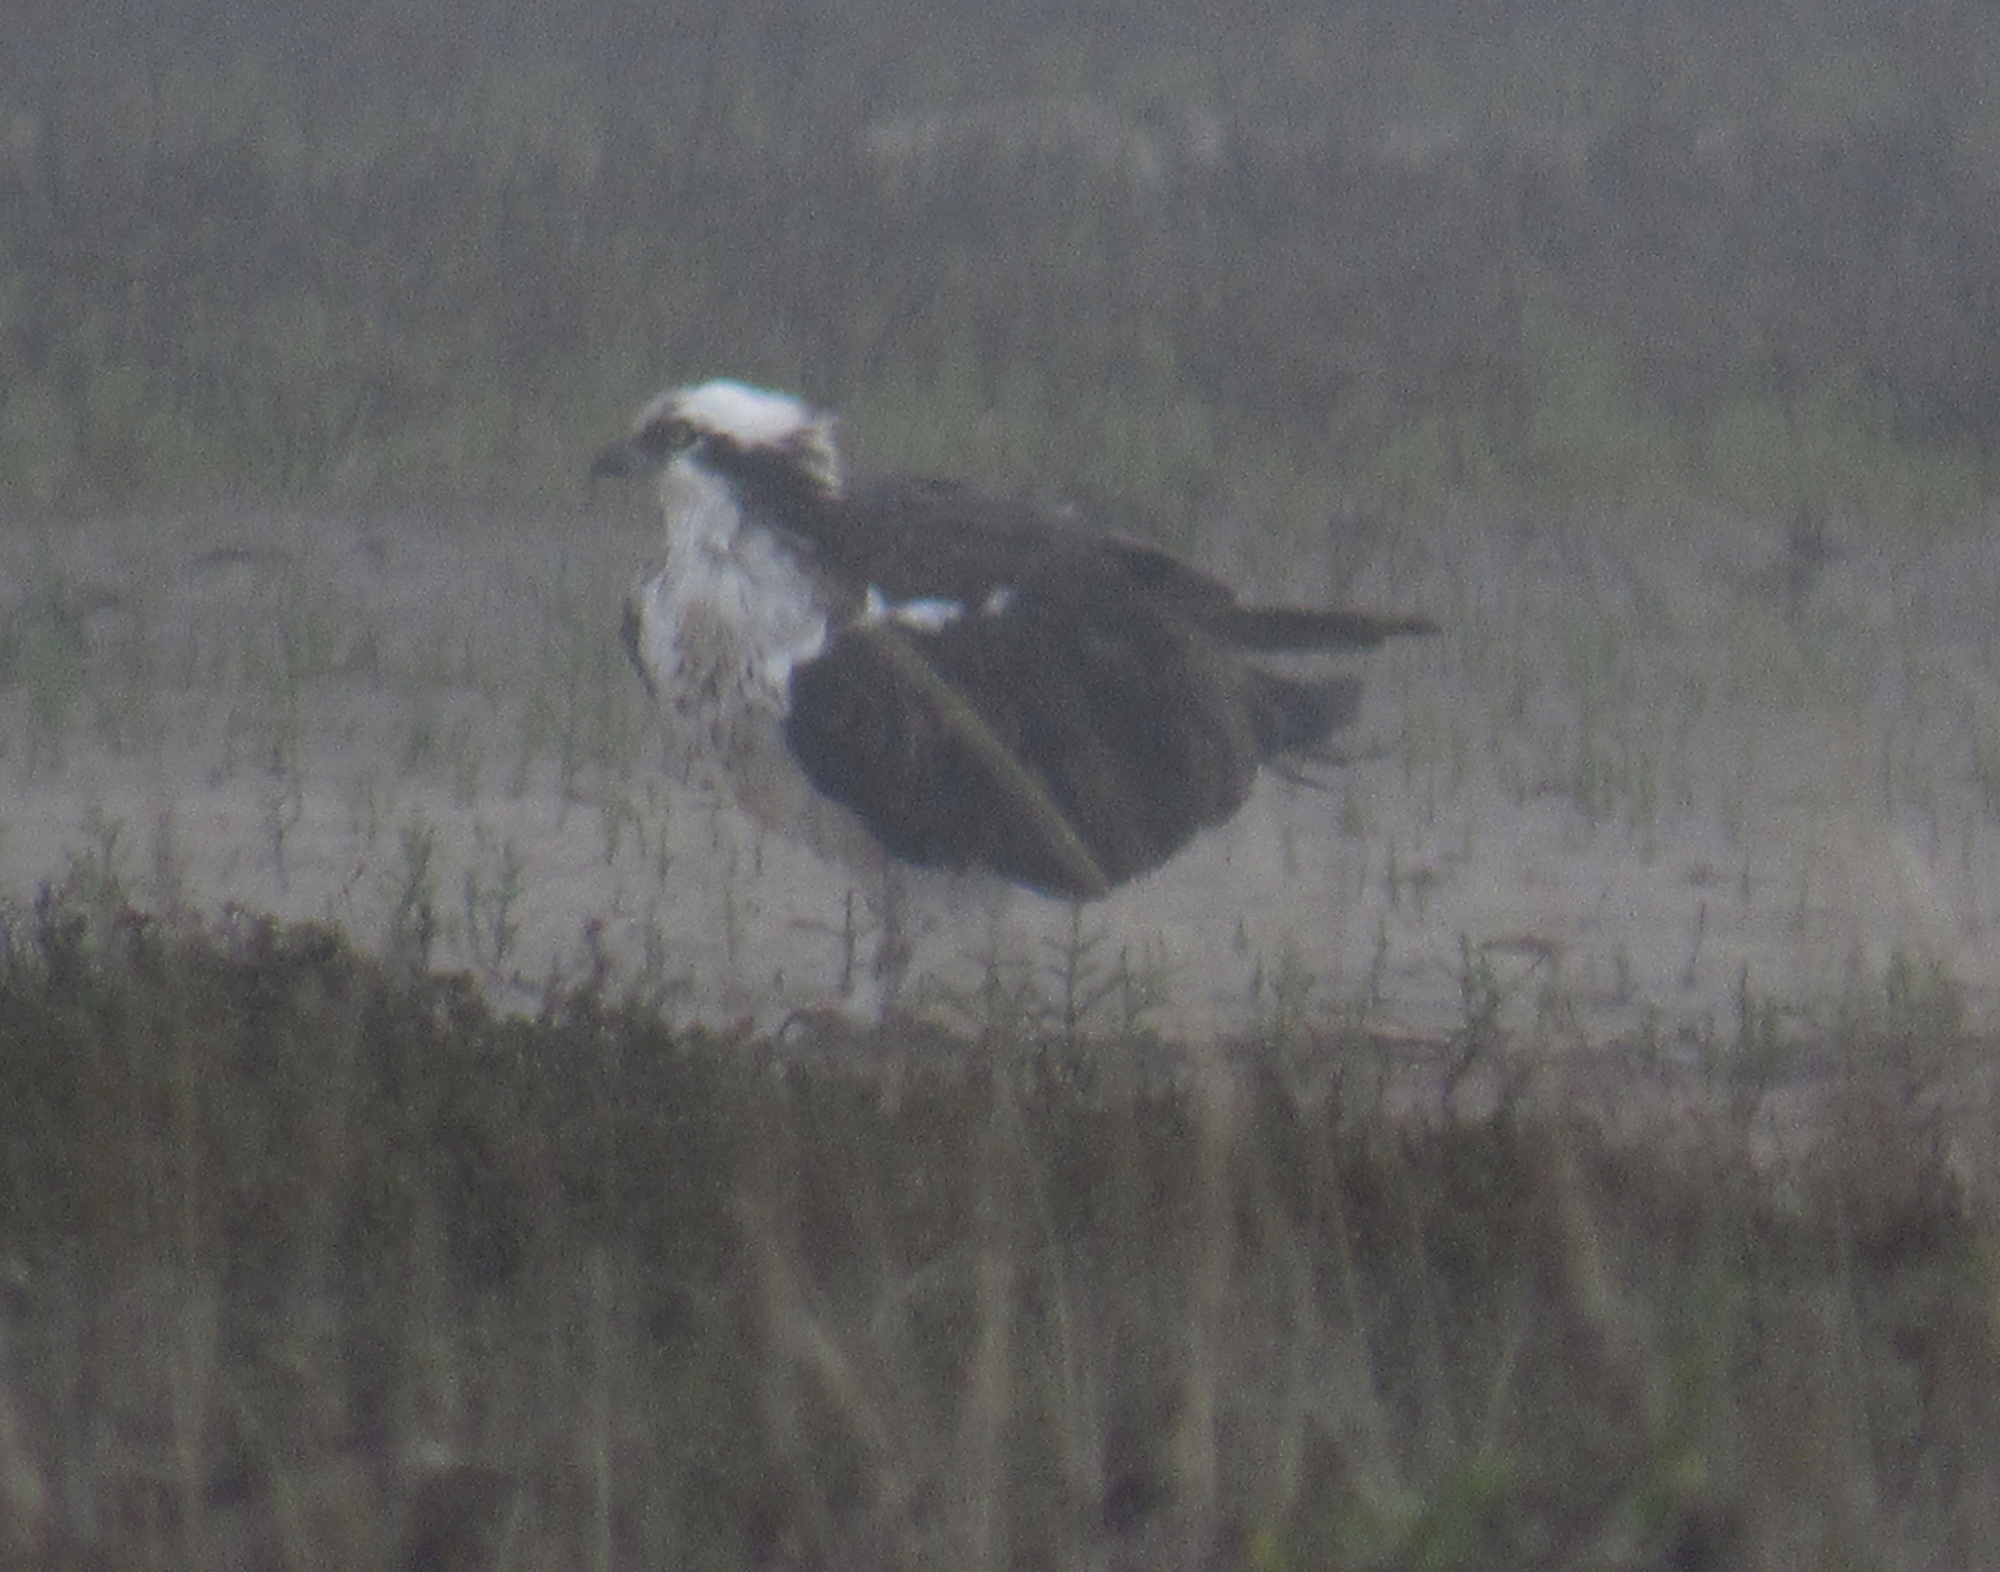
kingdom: Animalia
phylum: Chordata
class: Aves
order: Accipitriformes
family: Pandionidae
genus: Pandion
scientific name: Pandion haliaetus
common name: Osprey
